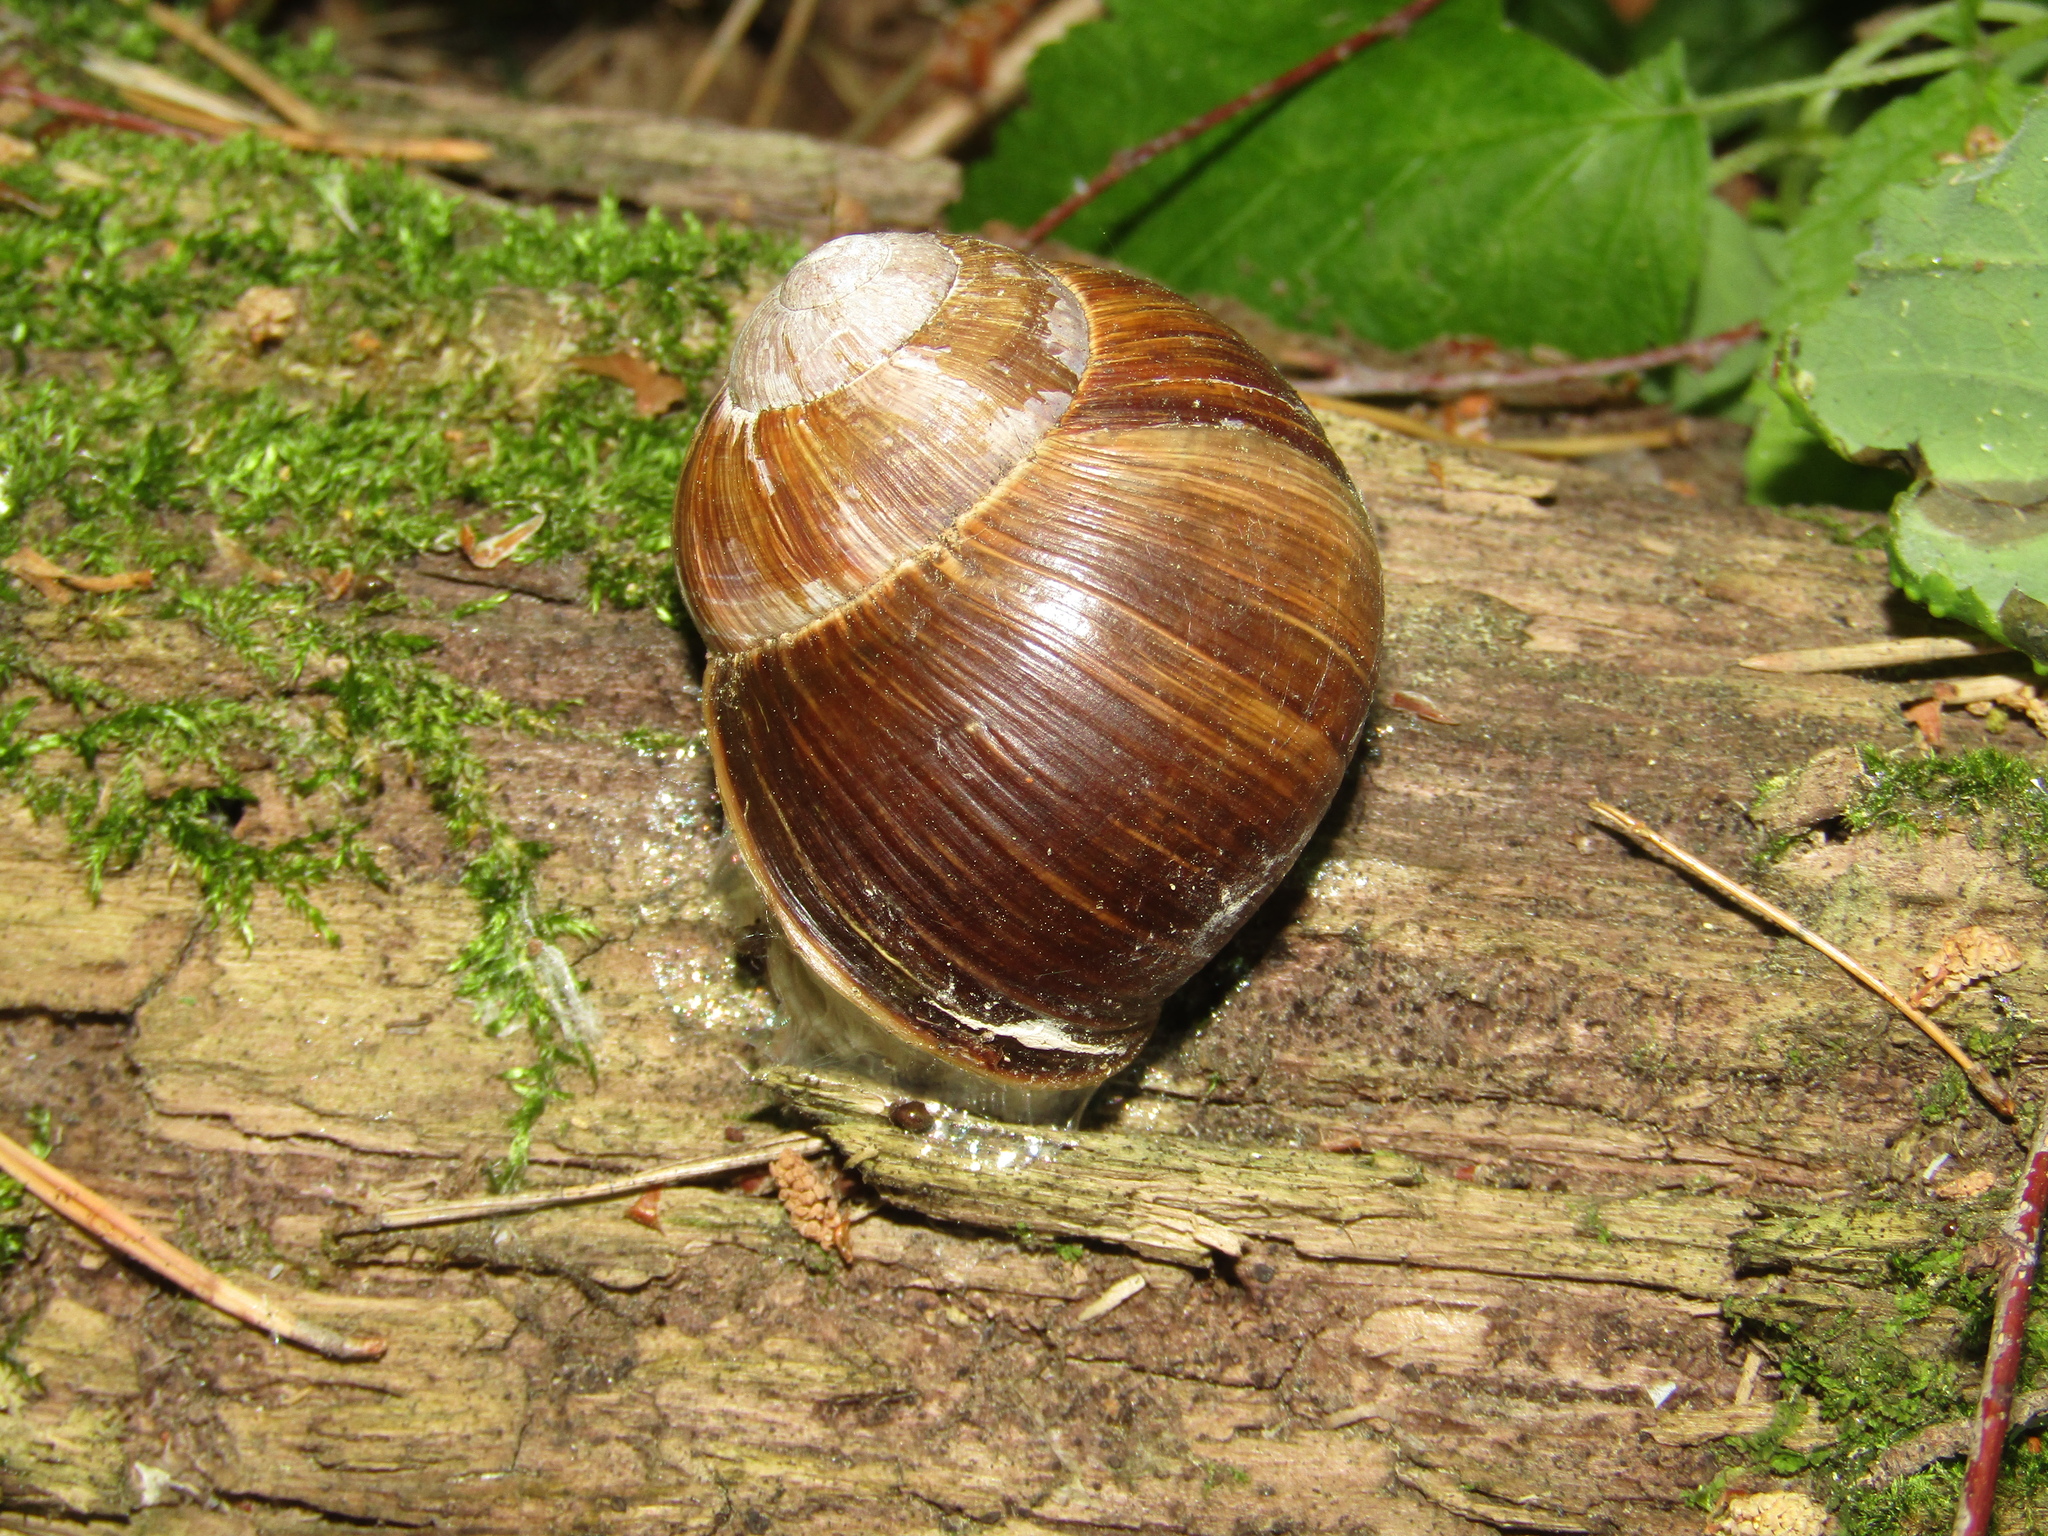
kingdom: Animalia
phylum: Mollusca
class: Gastropoda
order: Stylommatophora
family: Helicidae
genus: Helix
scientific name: Helix pomatia
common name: Roman snail
